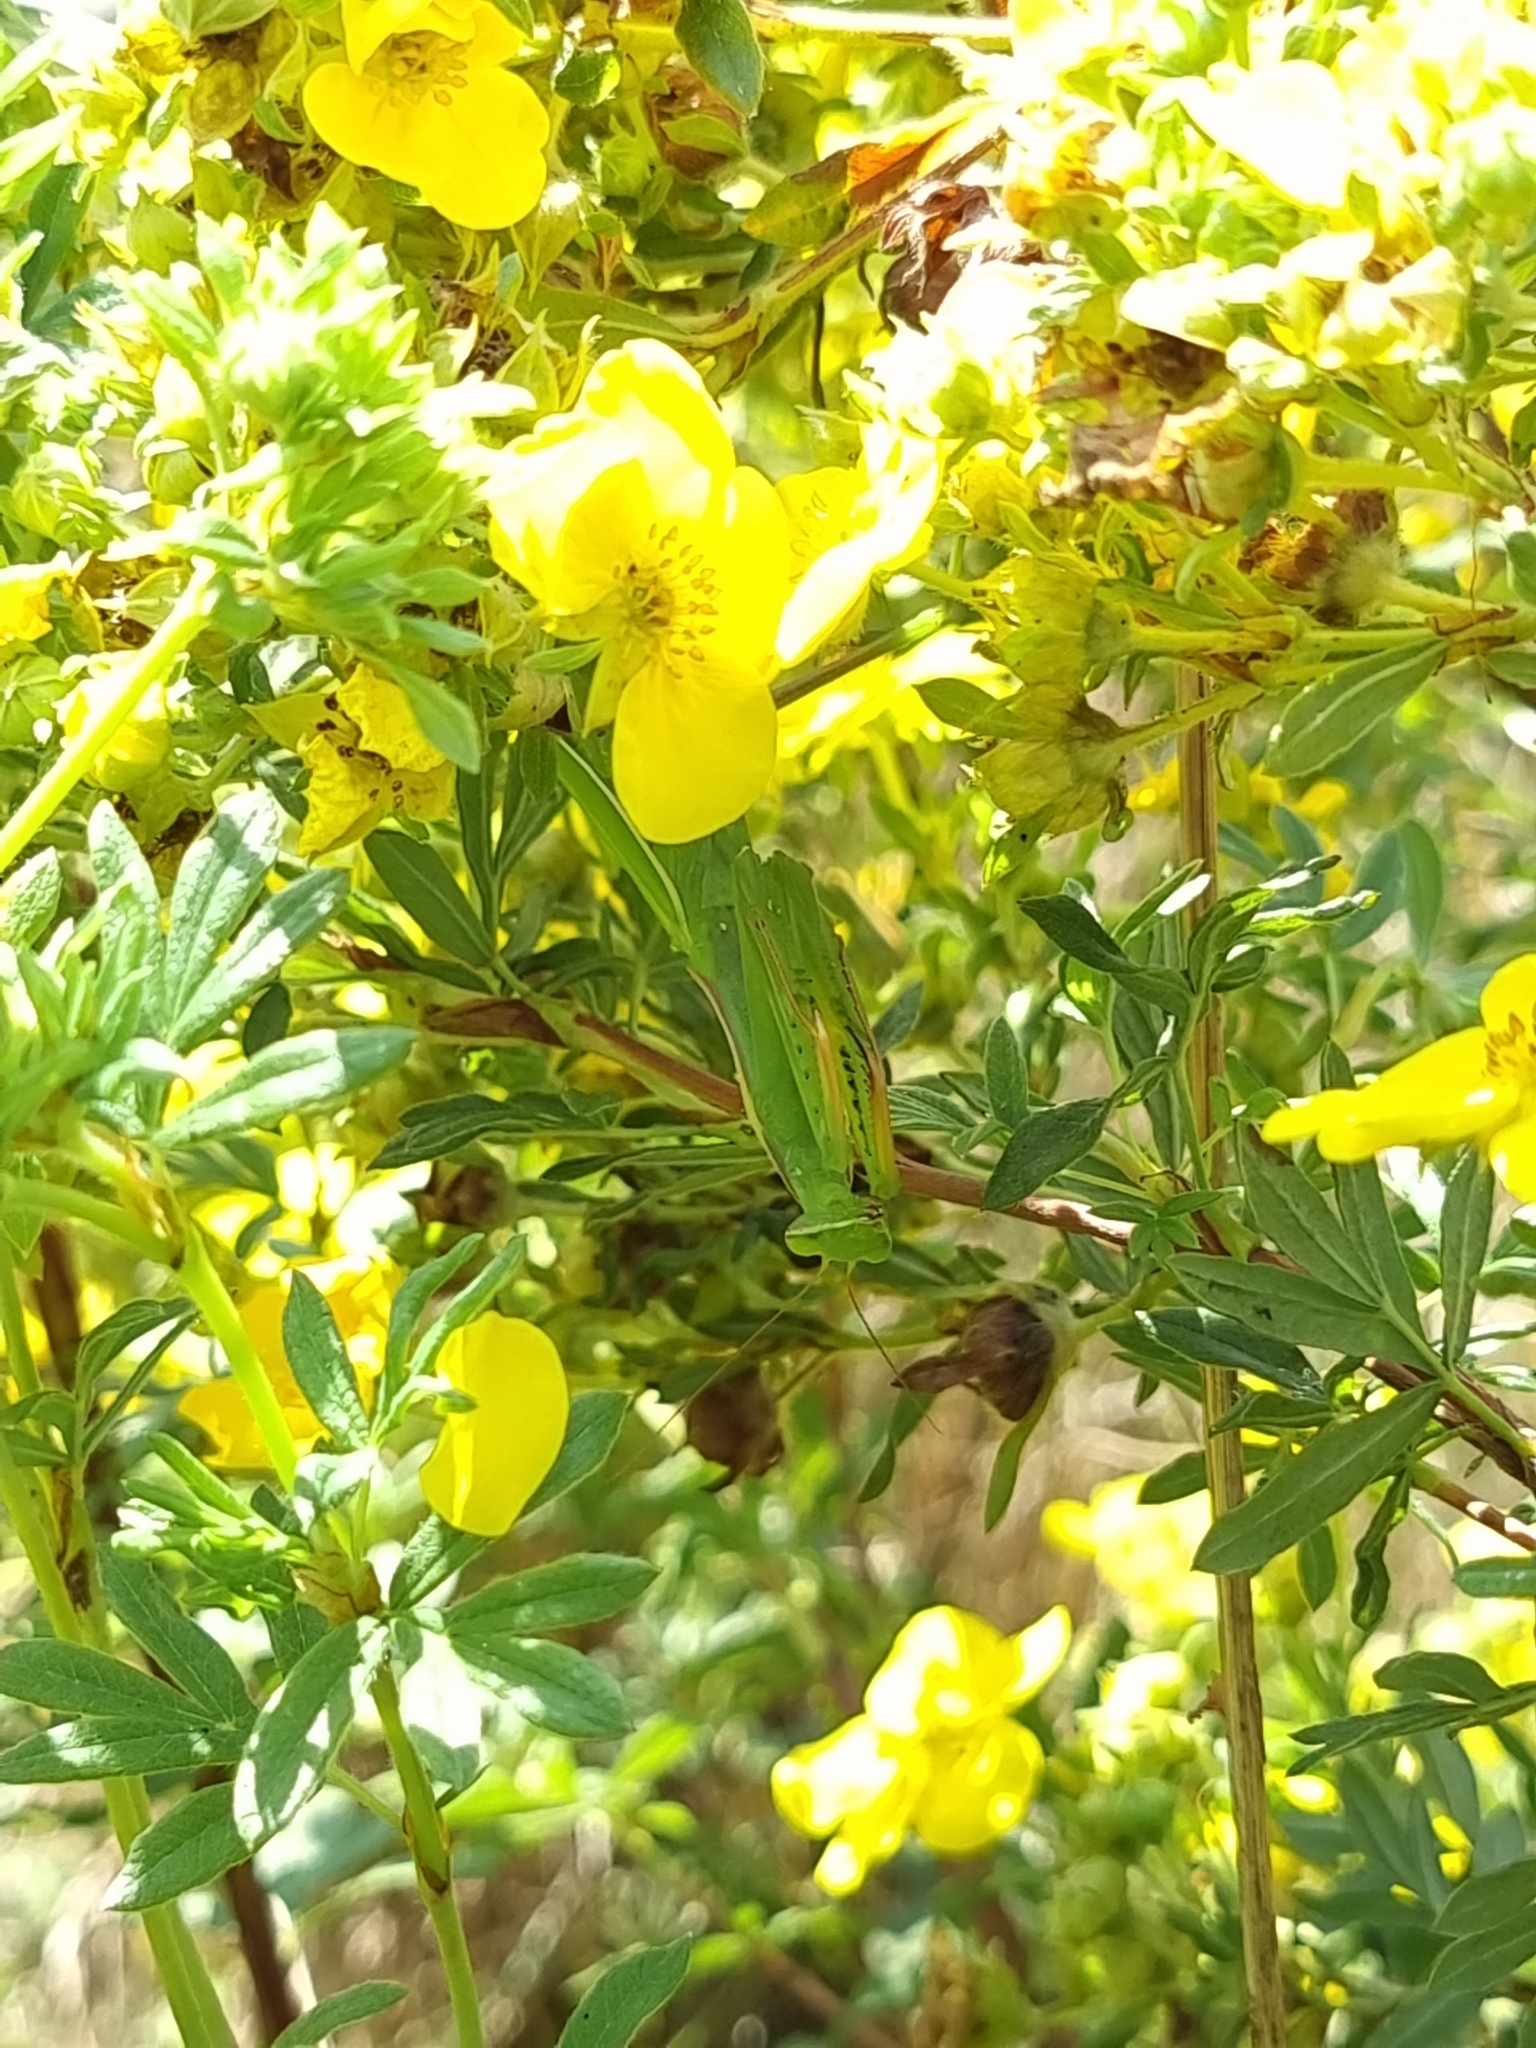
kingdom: Animalia
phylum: Arthropoda
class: Insecta
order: Mantodea
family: Mantidae
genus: Mantis
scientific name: Mantis religiosa
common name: Praying mantis
